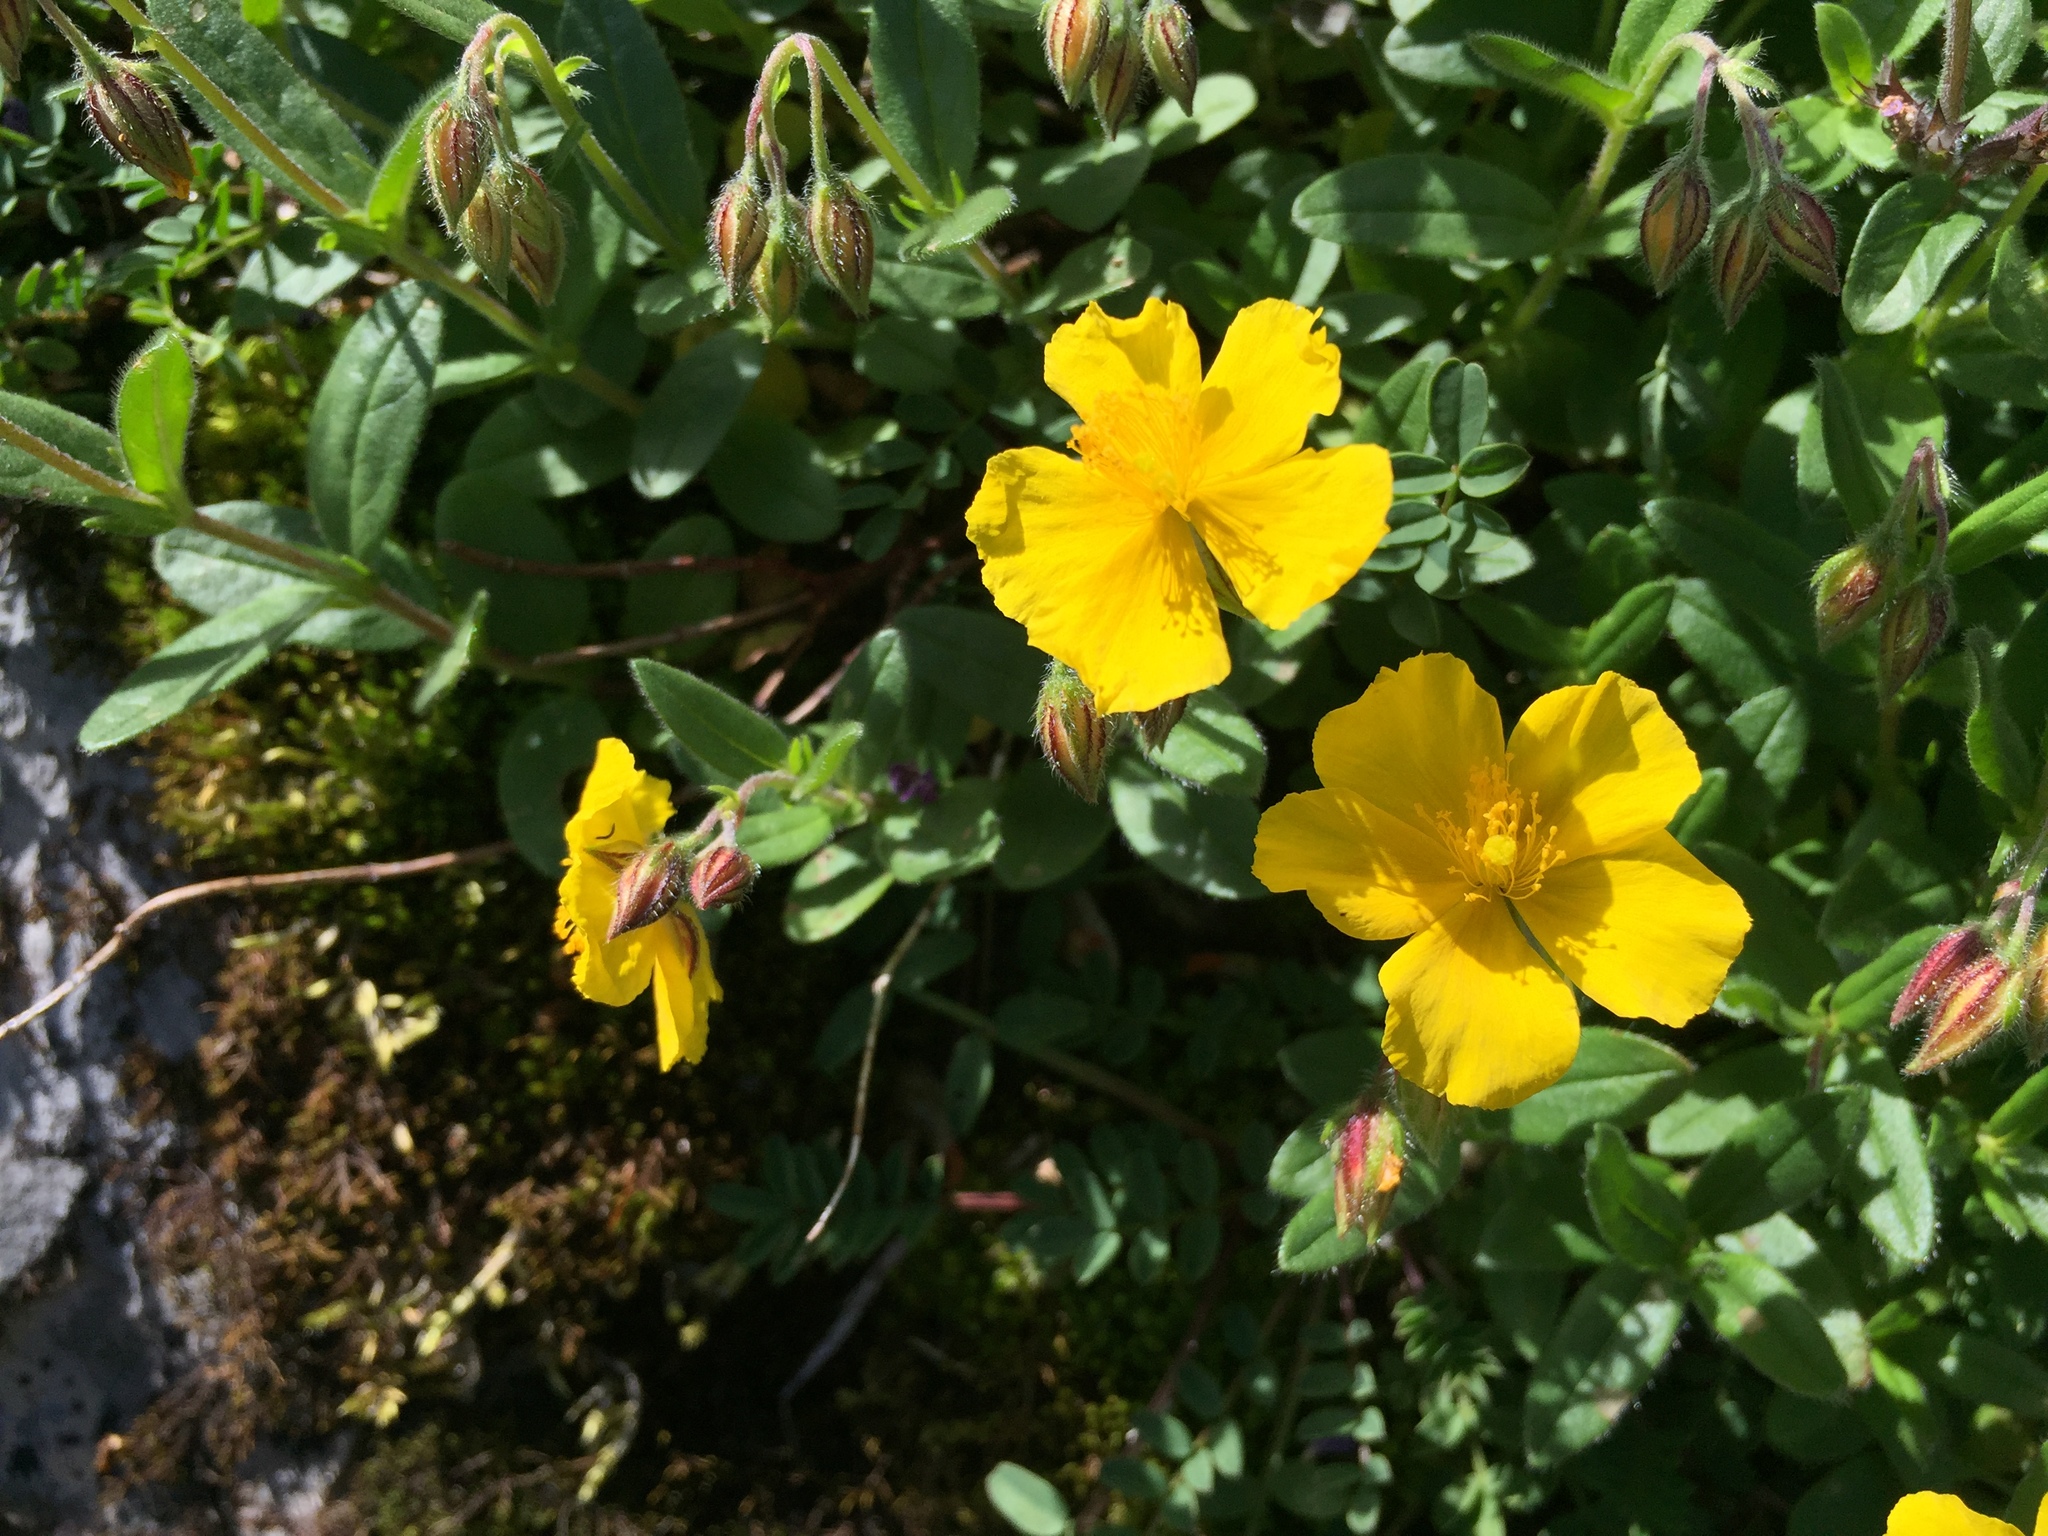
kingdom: Plantae
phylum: Tracheophyta
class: Magnoliopsida
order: Malvales
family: Cistaceae
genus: Helianthemum
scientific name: Helianthemum nummularium
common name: Common rock-rose
